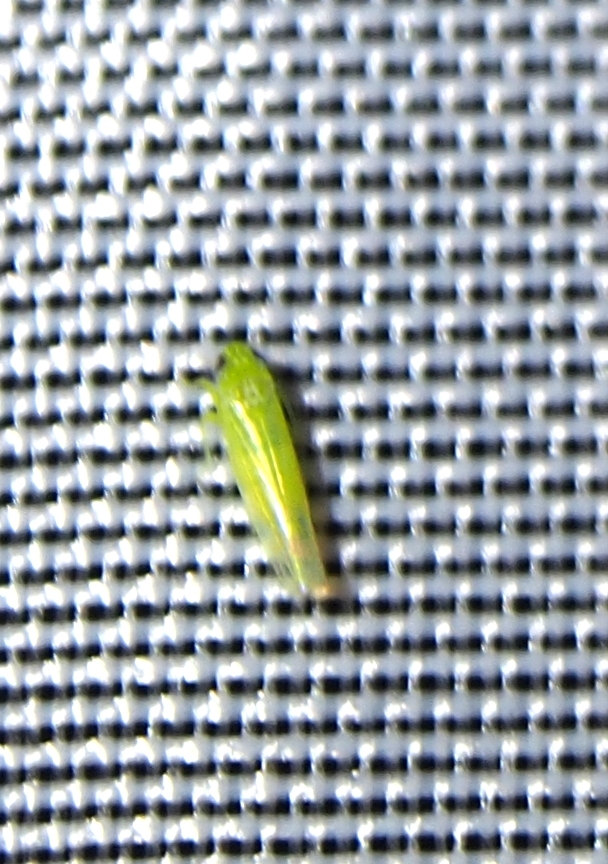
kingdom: Animalia
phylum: Arthropoda
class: Insecta
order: Hemiptera
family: Cicadellidae
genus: Empoasca
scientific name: Empoasca fabae
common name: Potato leafhopper
